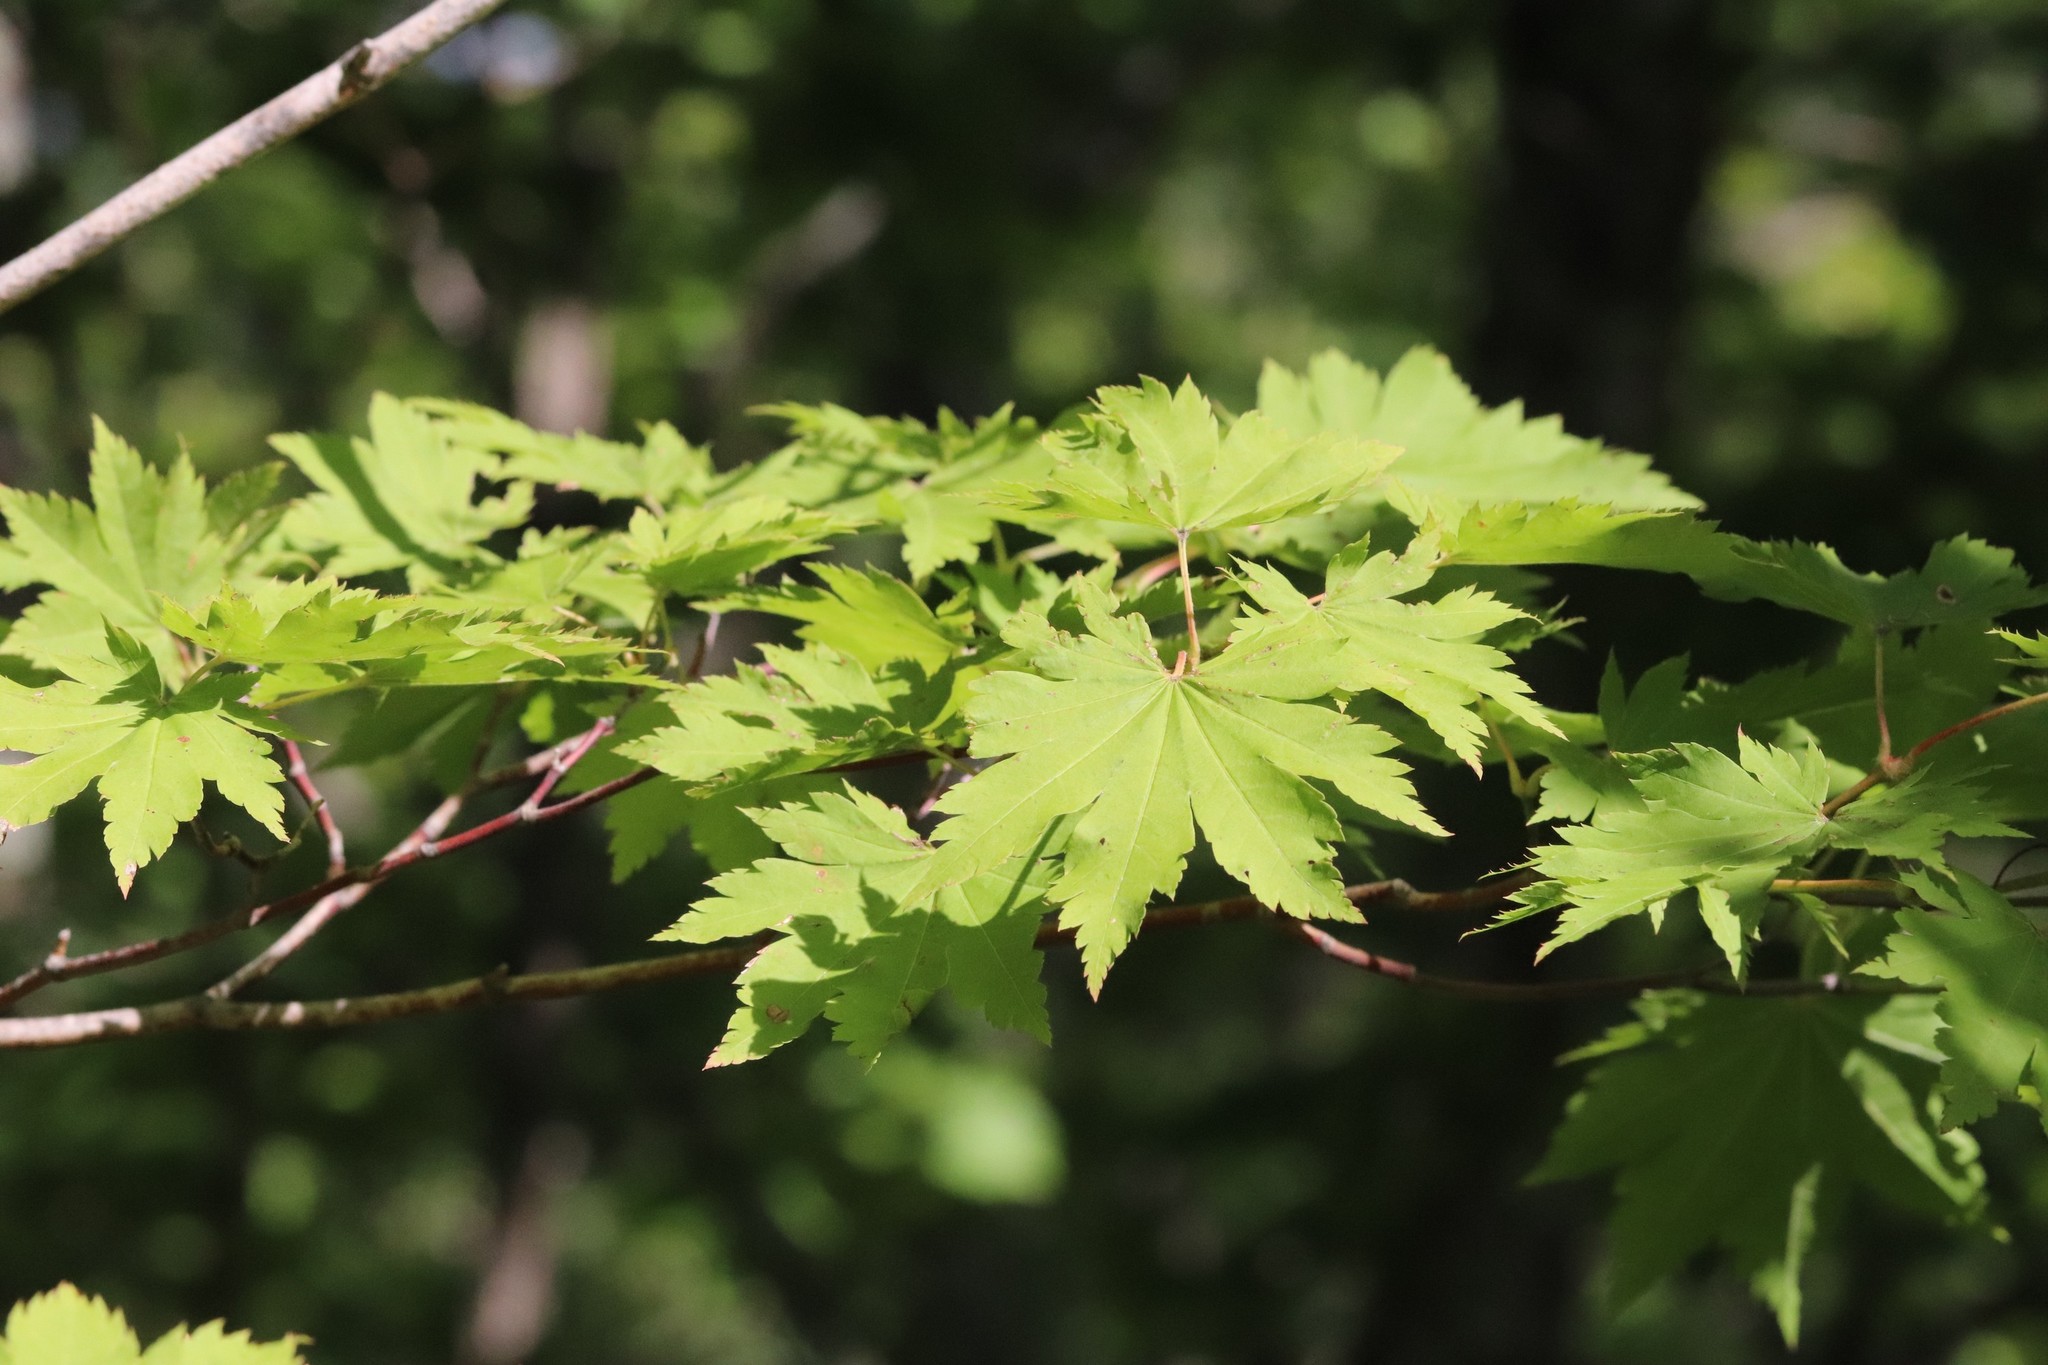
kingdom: Plantae
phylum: Tracheophyta
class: Magnoliopsida
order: Sapindales
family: Sapindaceae
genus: Acer
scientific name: Acer pseudosieboldianum
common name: Korean maple
